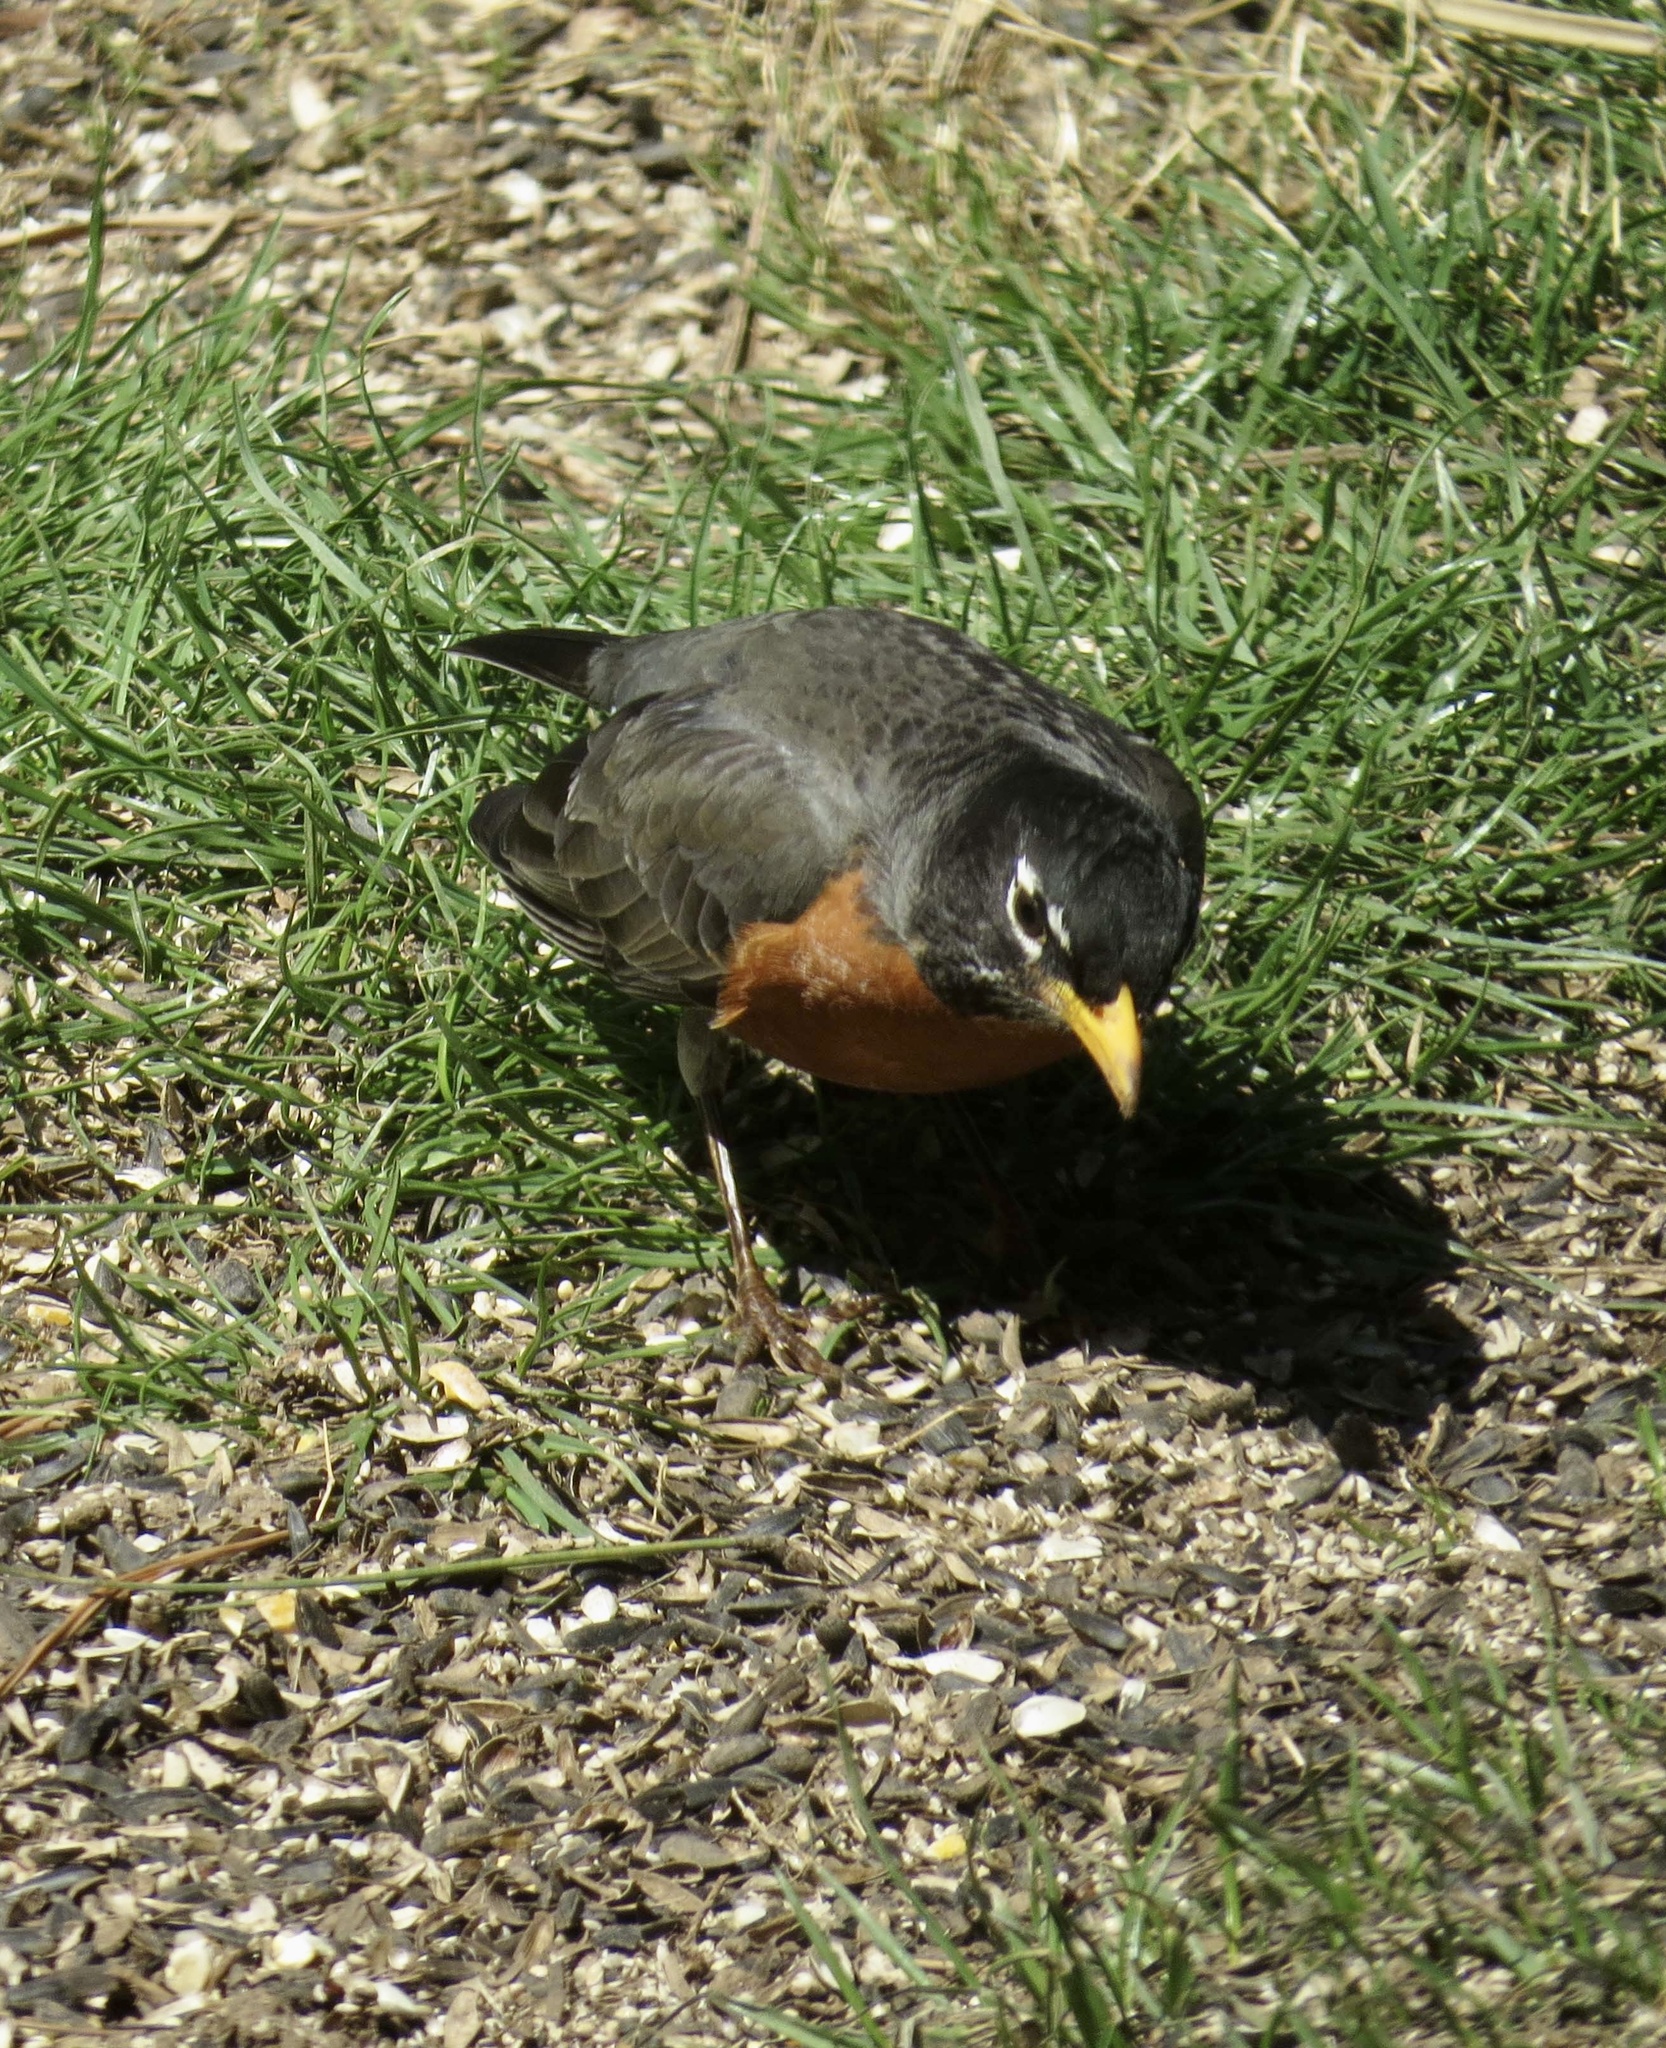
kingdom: Animalia
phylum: Chordata
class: Aves
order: Passeriformes
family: Turdidae
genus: Turdus
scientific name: Turdus migratorius
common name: American robin
